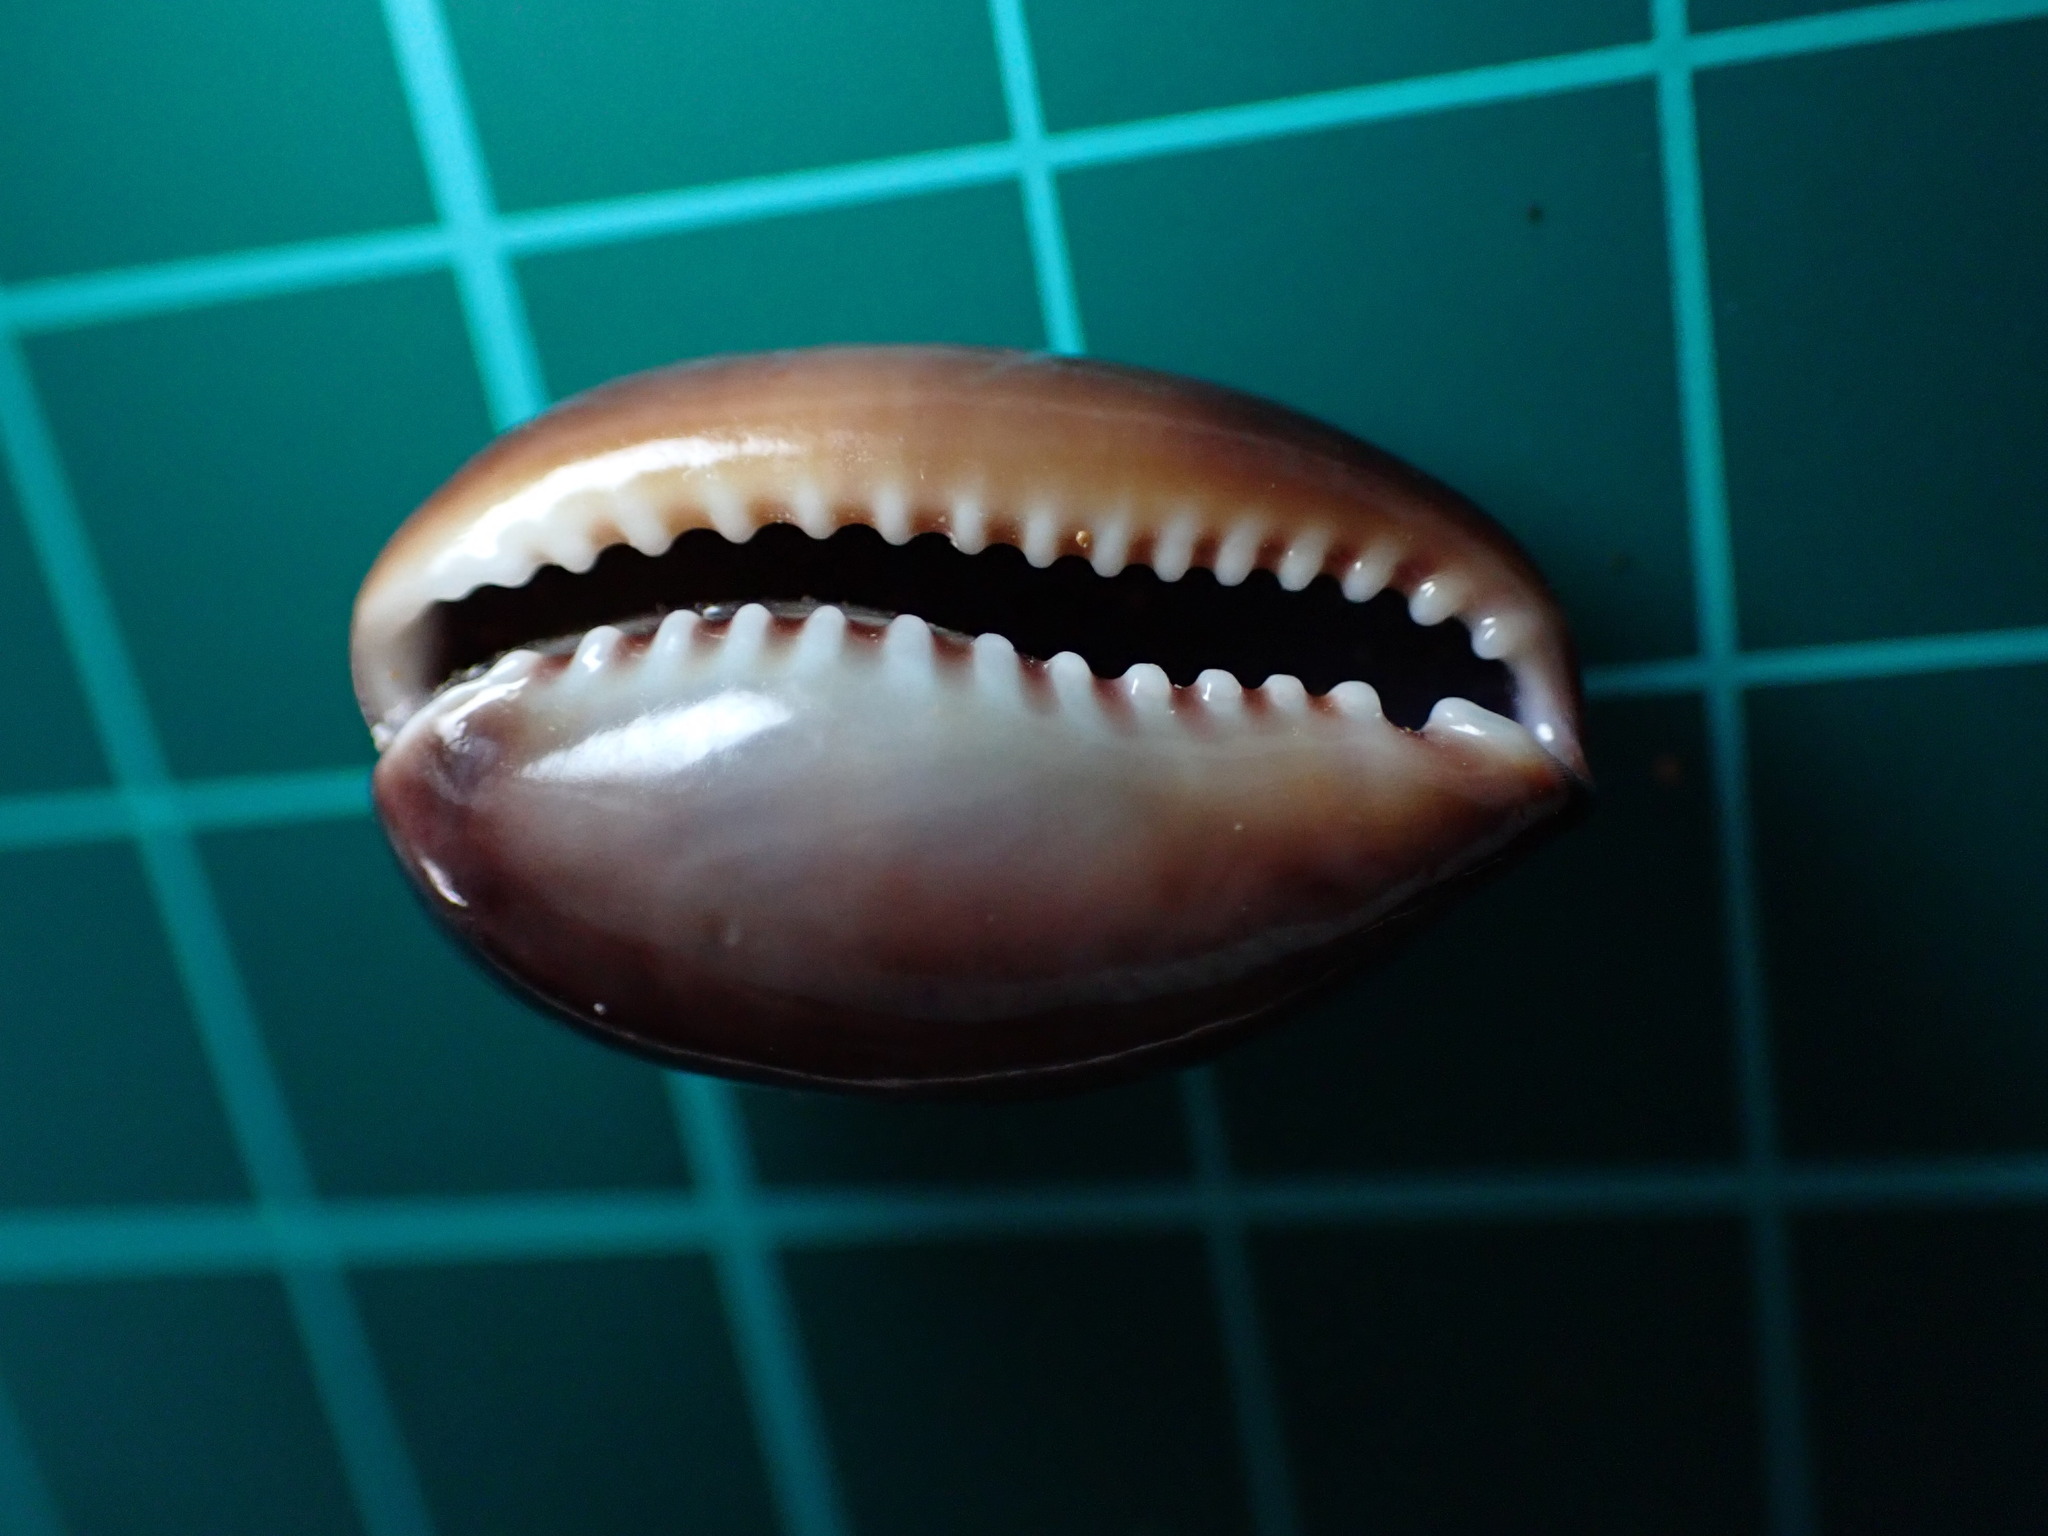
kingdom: Animalia
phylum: Mollusca
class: Gastropoda
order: Littorinimorpha
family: Cypraeidae
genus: Monetaria
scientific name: Monetaria caputophidii
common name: Snake's head cowry
